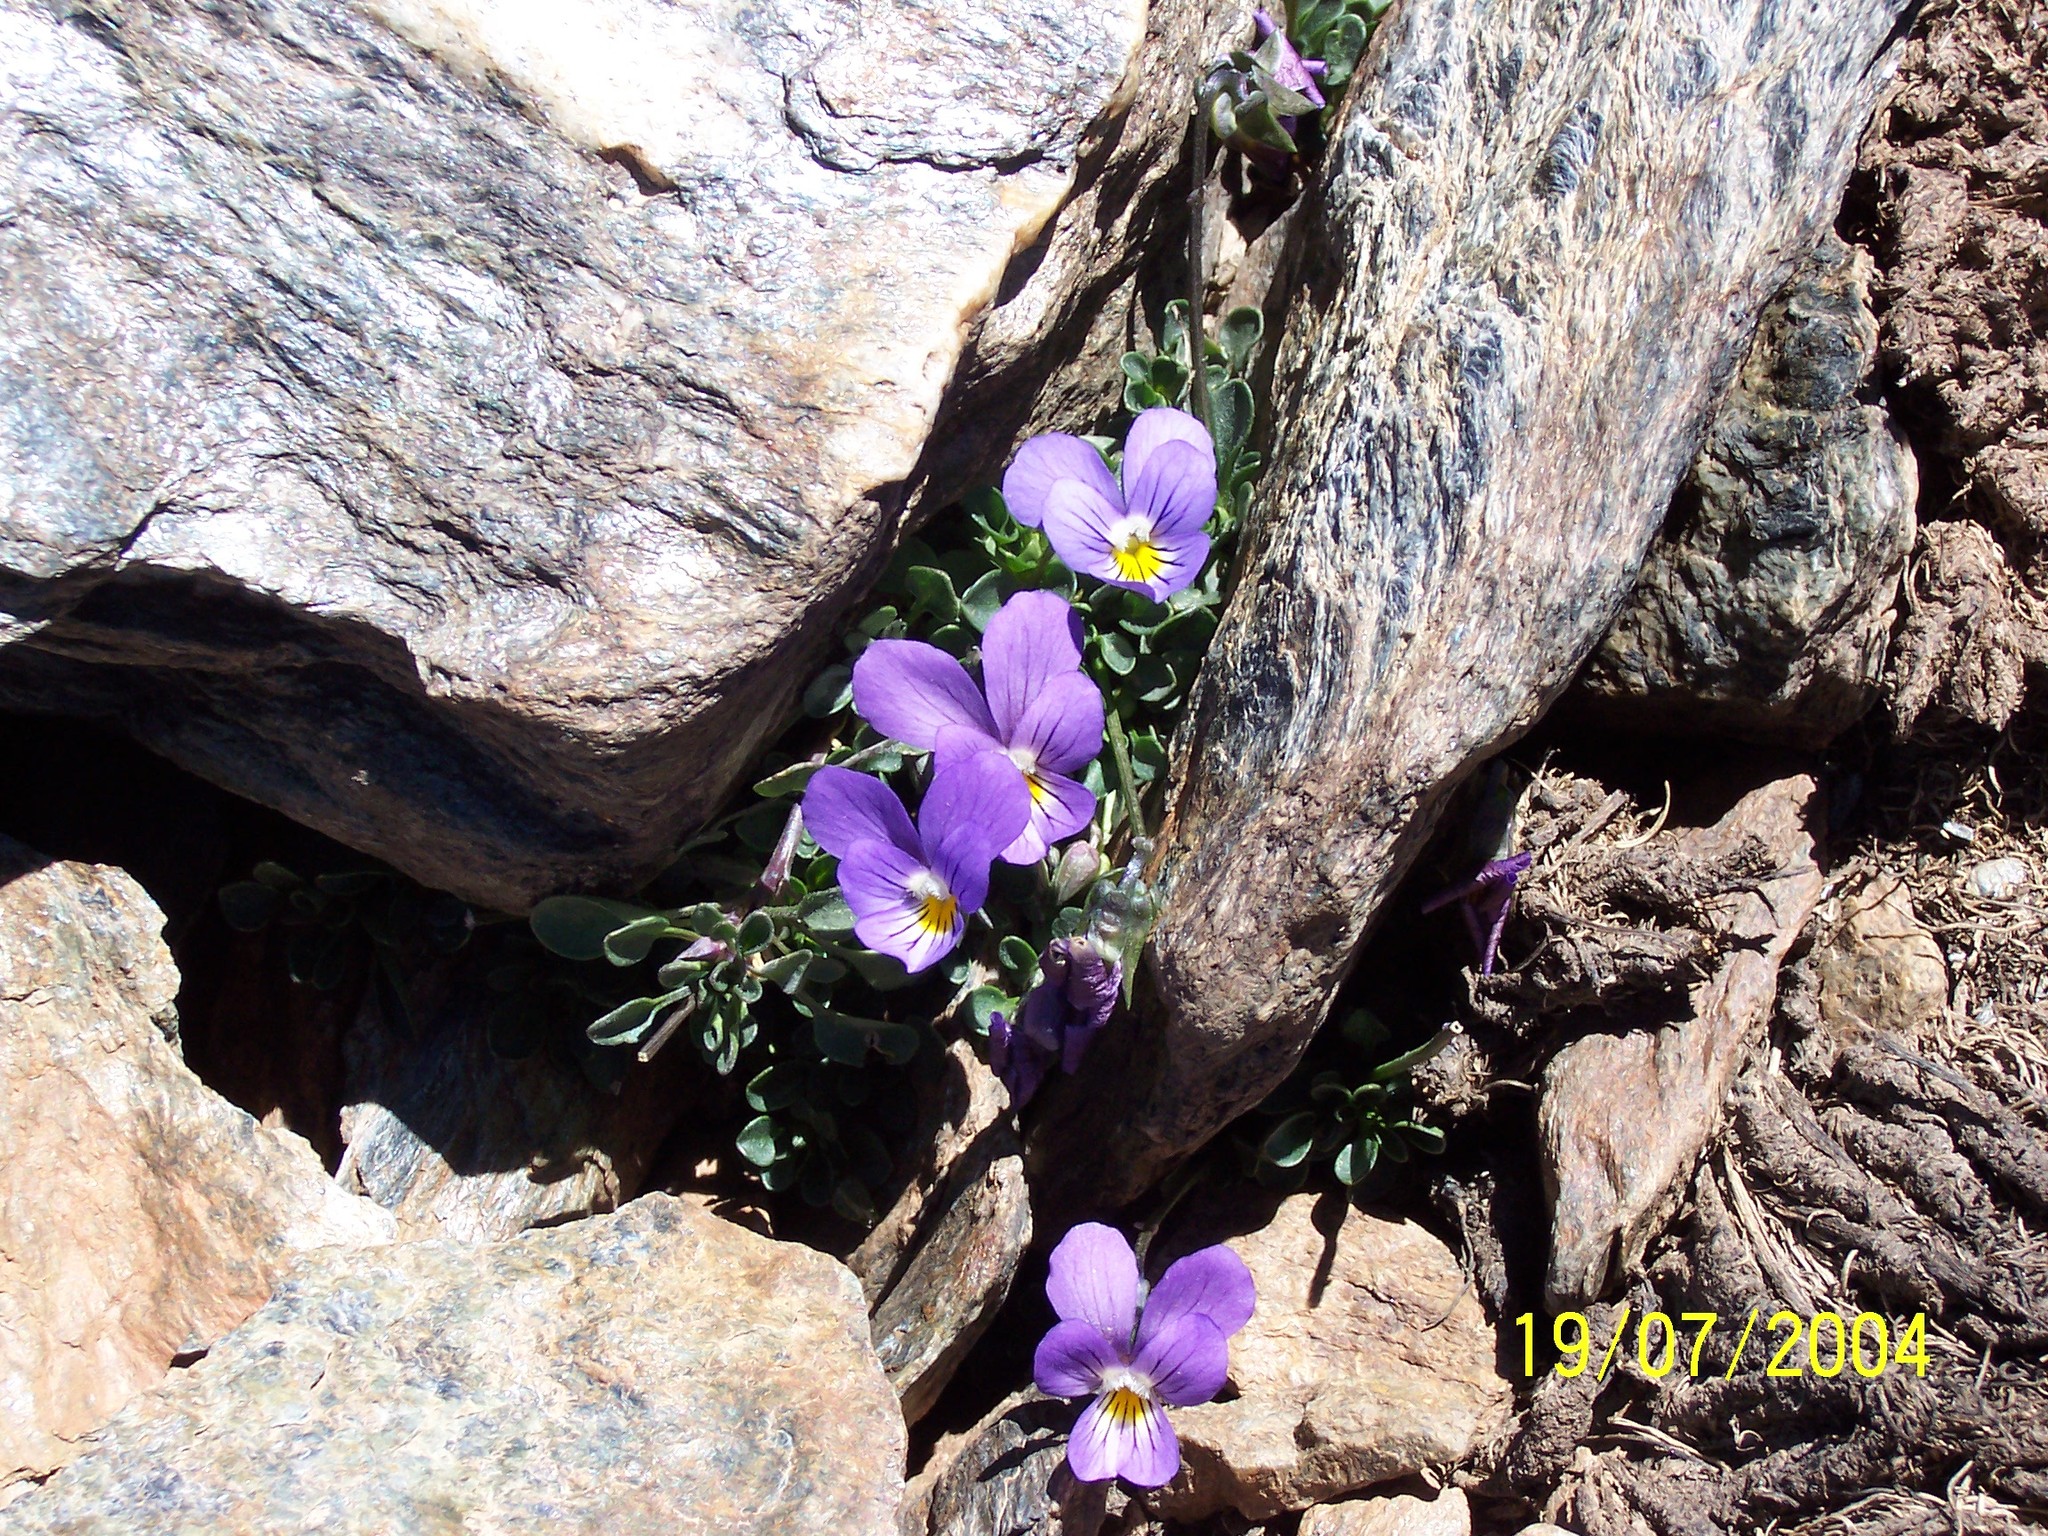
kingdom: Plantae
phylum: Tracheophyta
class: Magnoliopsida
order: Malpighiales
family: Violaceae
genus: Viola
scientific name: Viola crassiuscula
